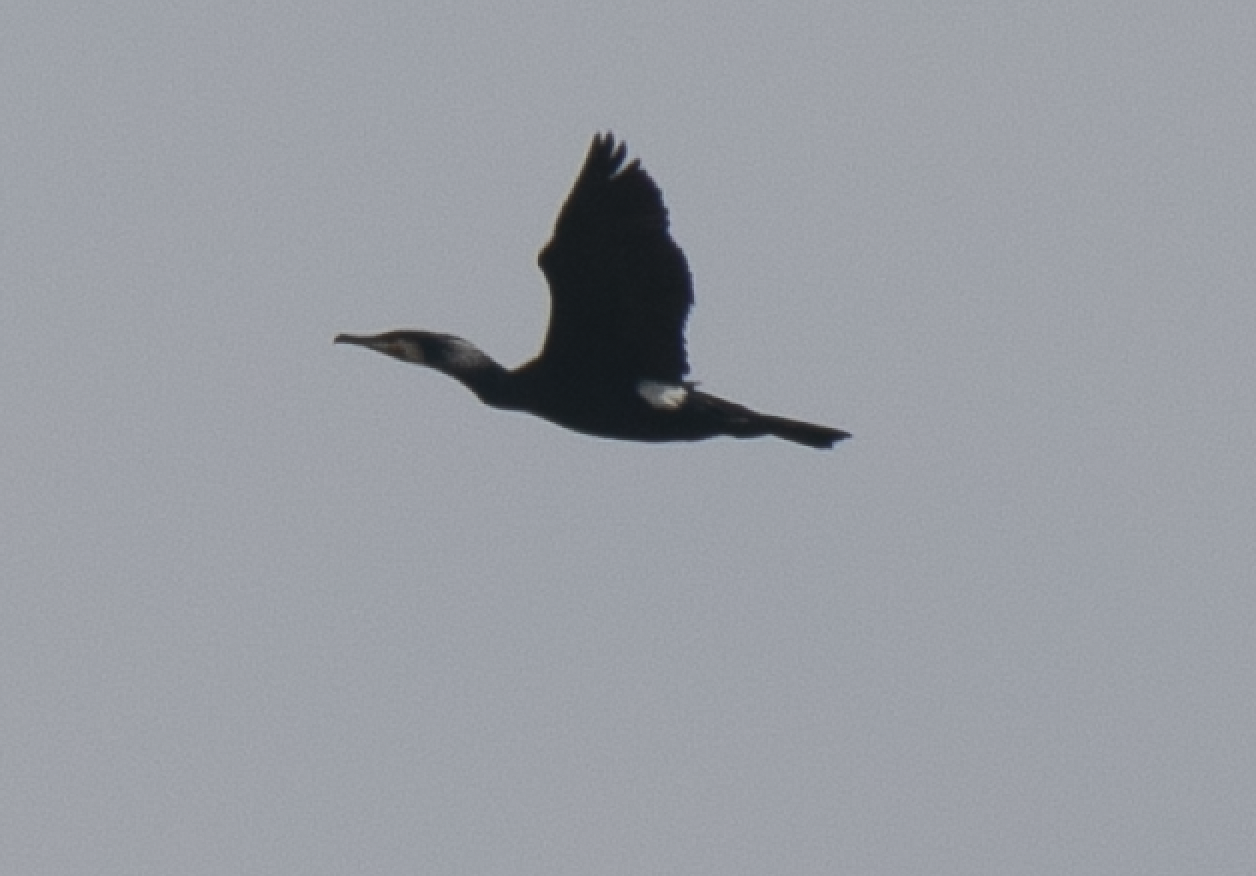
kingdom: Animalia
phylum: Chordata
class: Aves
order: Suliformes
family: Phalacrocoracidae
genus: Phalacrocorax
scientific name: Phalacrocorax carbo
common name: Great cormorant
